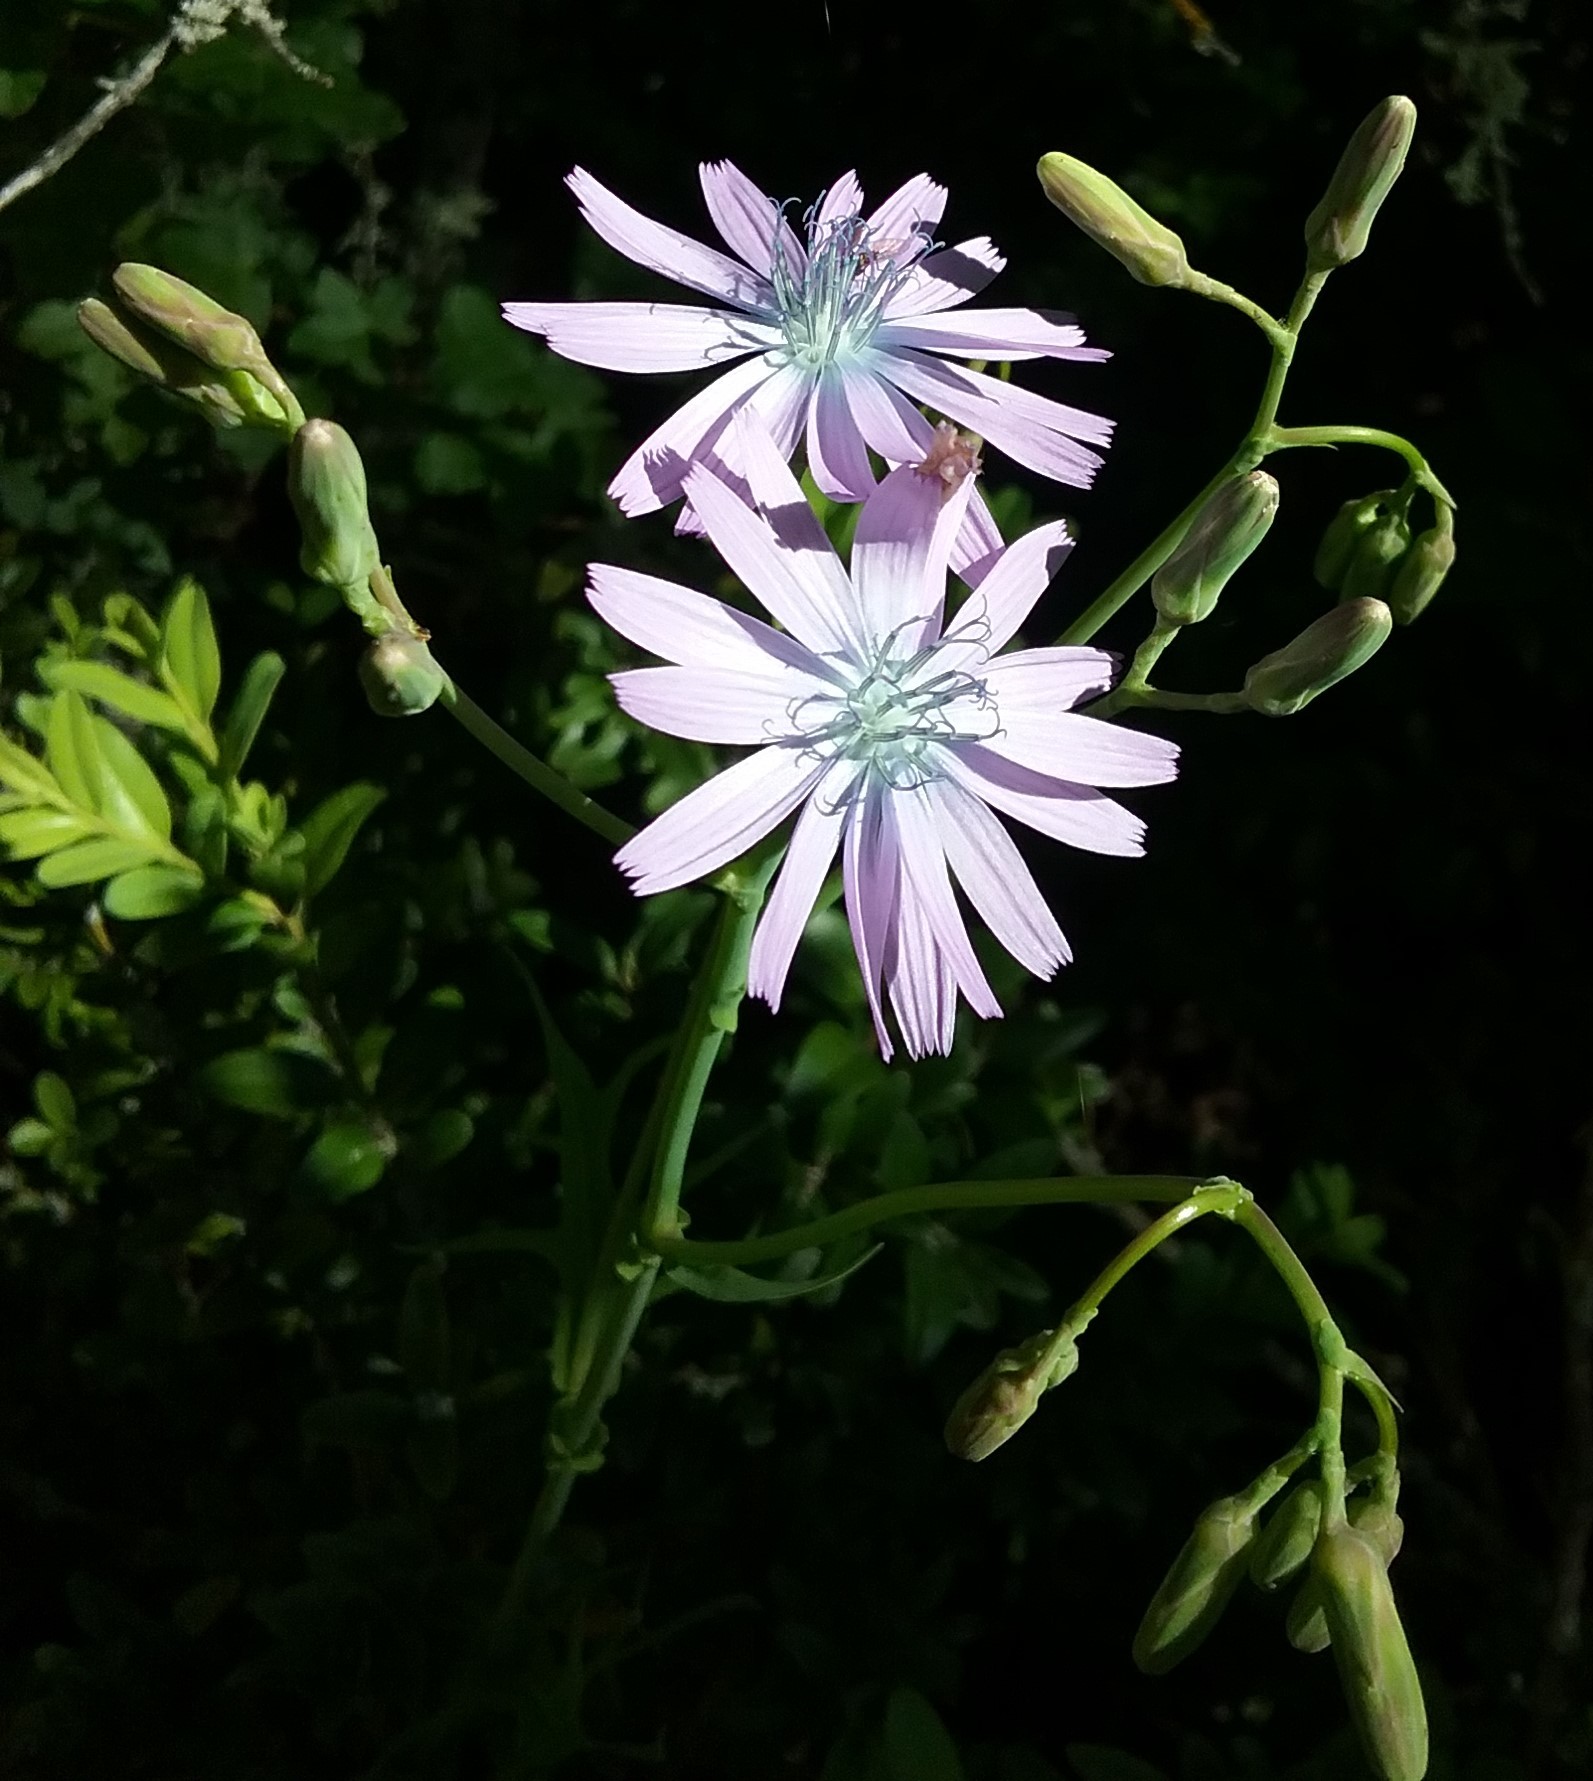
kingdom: Plantae
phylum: Tracheophyta
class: Magnoliopsida
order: Asterales
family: Asteraceae
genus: Lactuca
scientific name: Lactuca perennis
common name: Mountain lettuce
